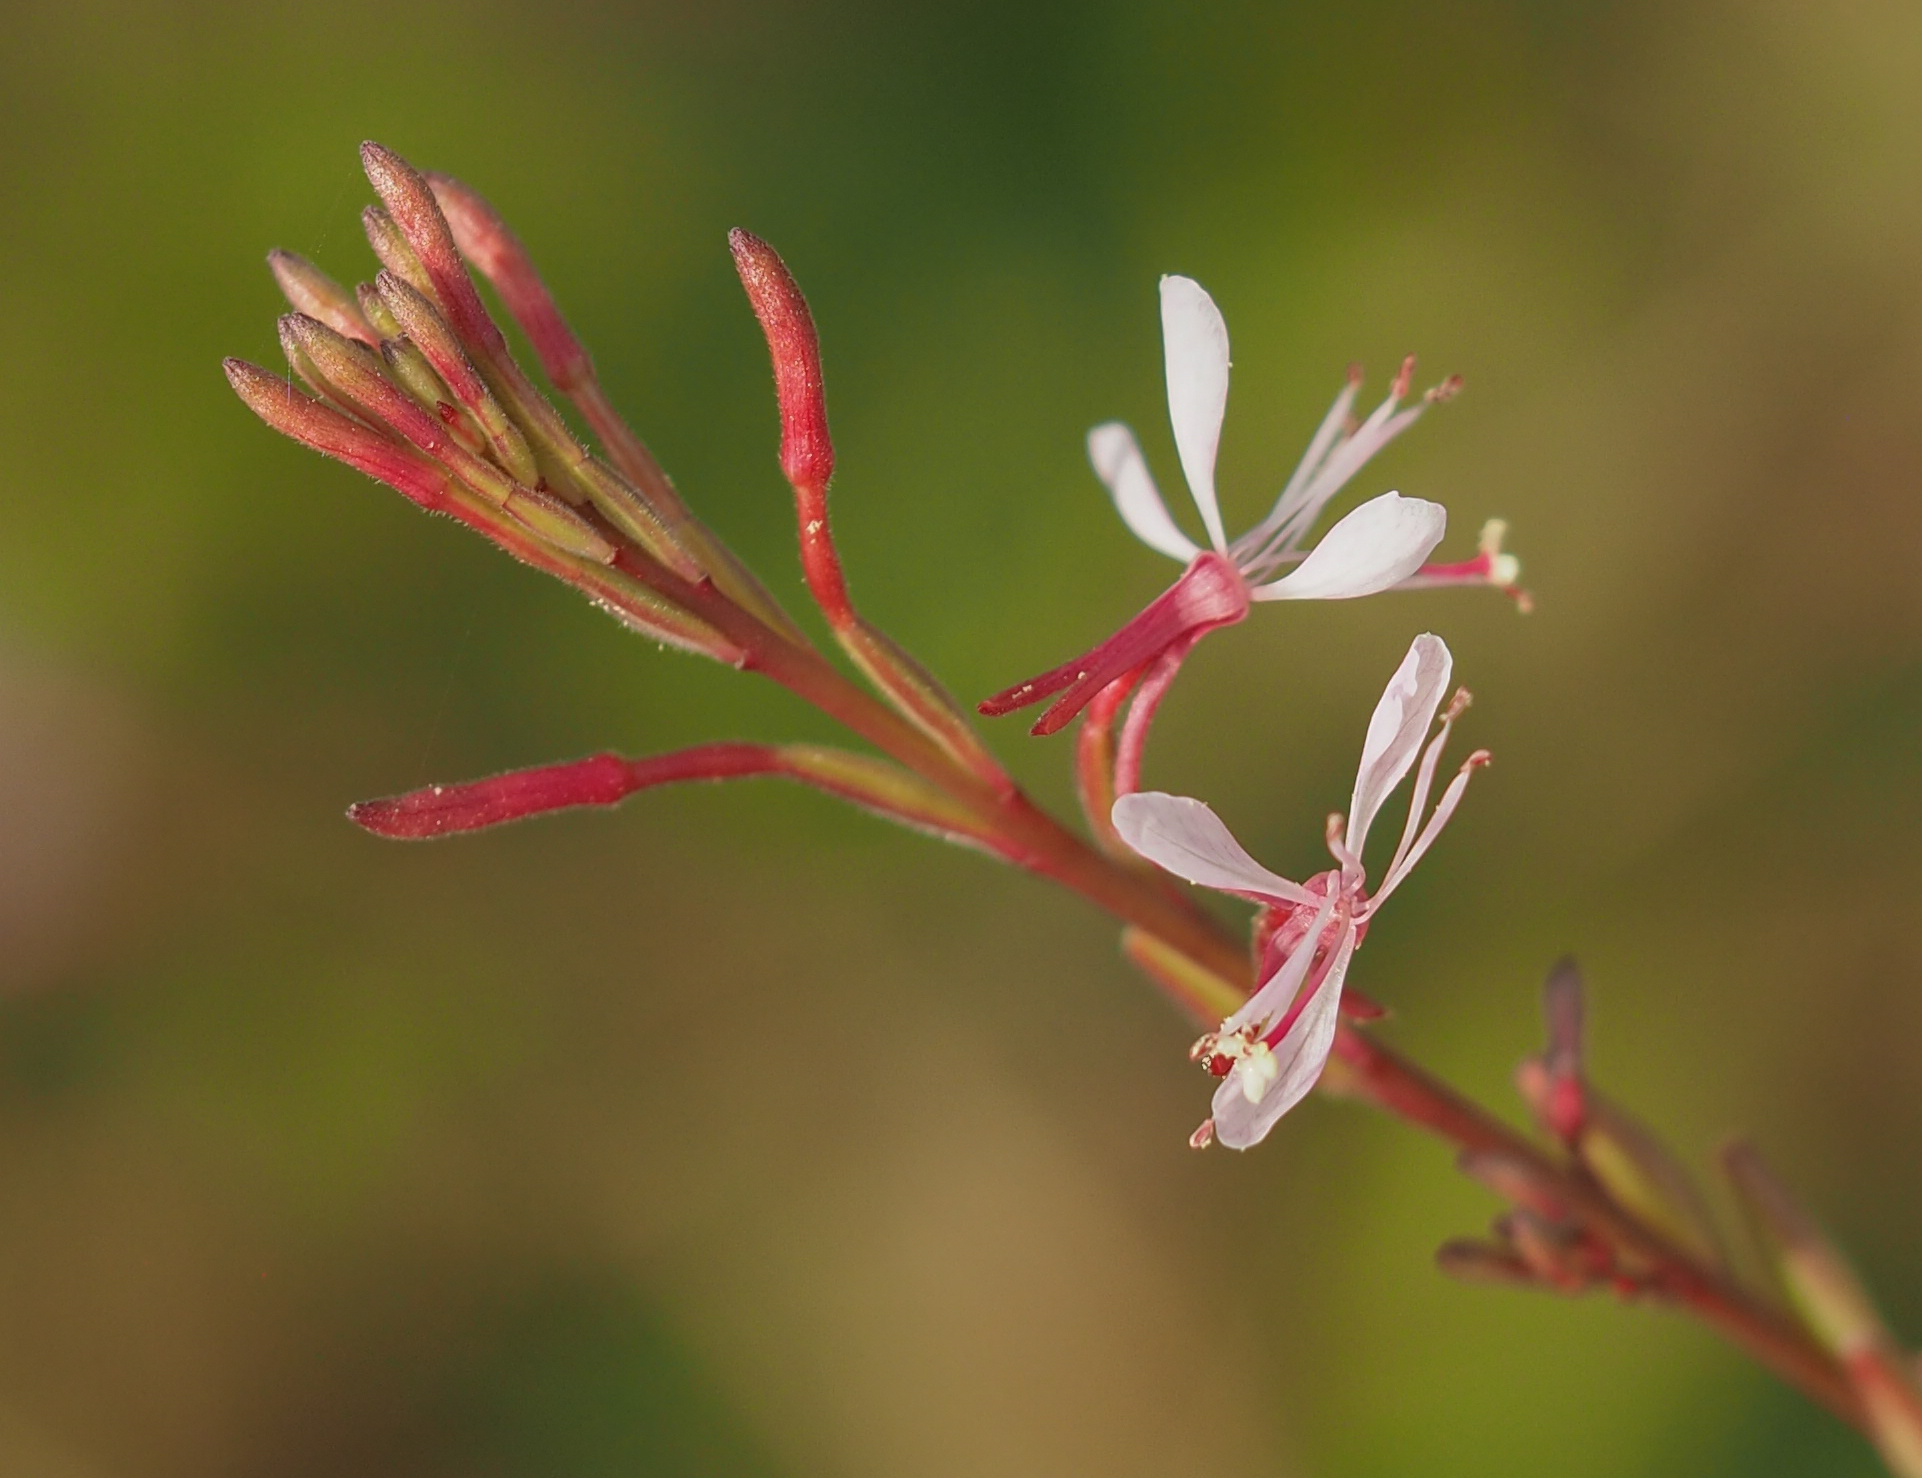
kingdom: Plantae
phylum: Tracheophyta
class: Magnoliopsida
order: Myrtales
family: Onagraceae
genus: Oenothera
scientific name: Oenothera simulans
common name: Southern beeblossom
